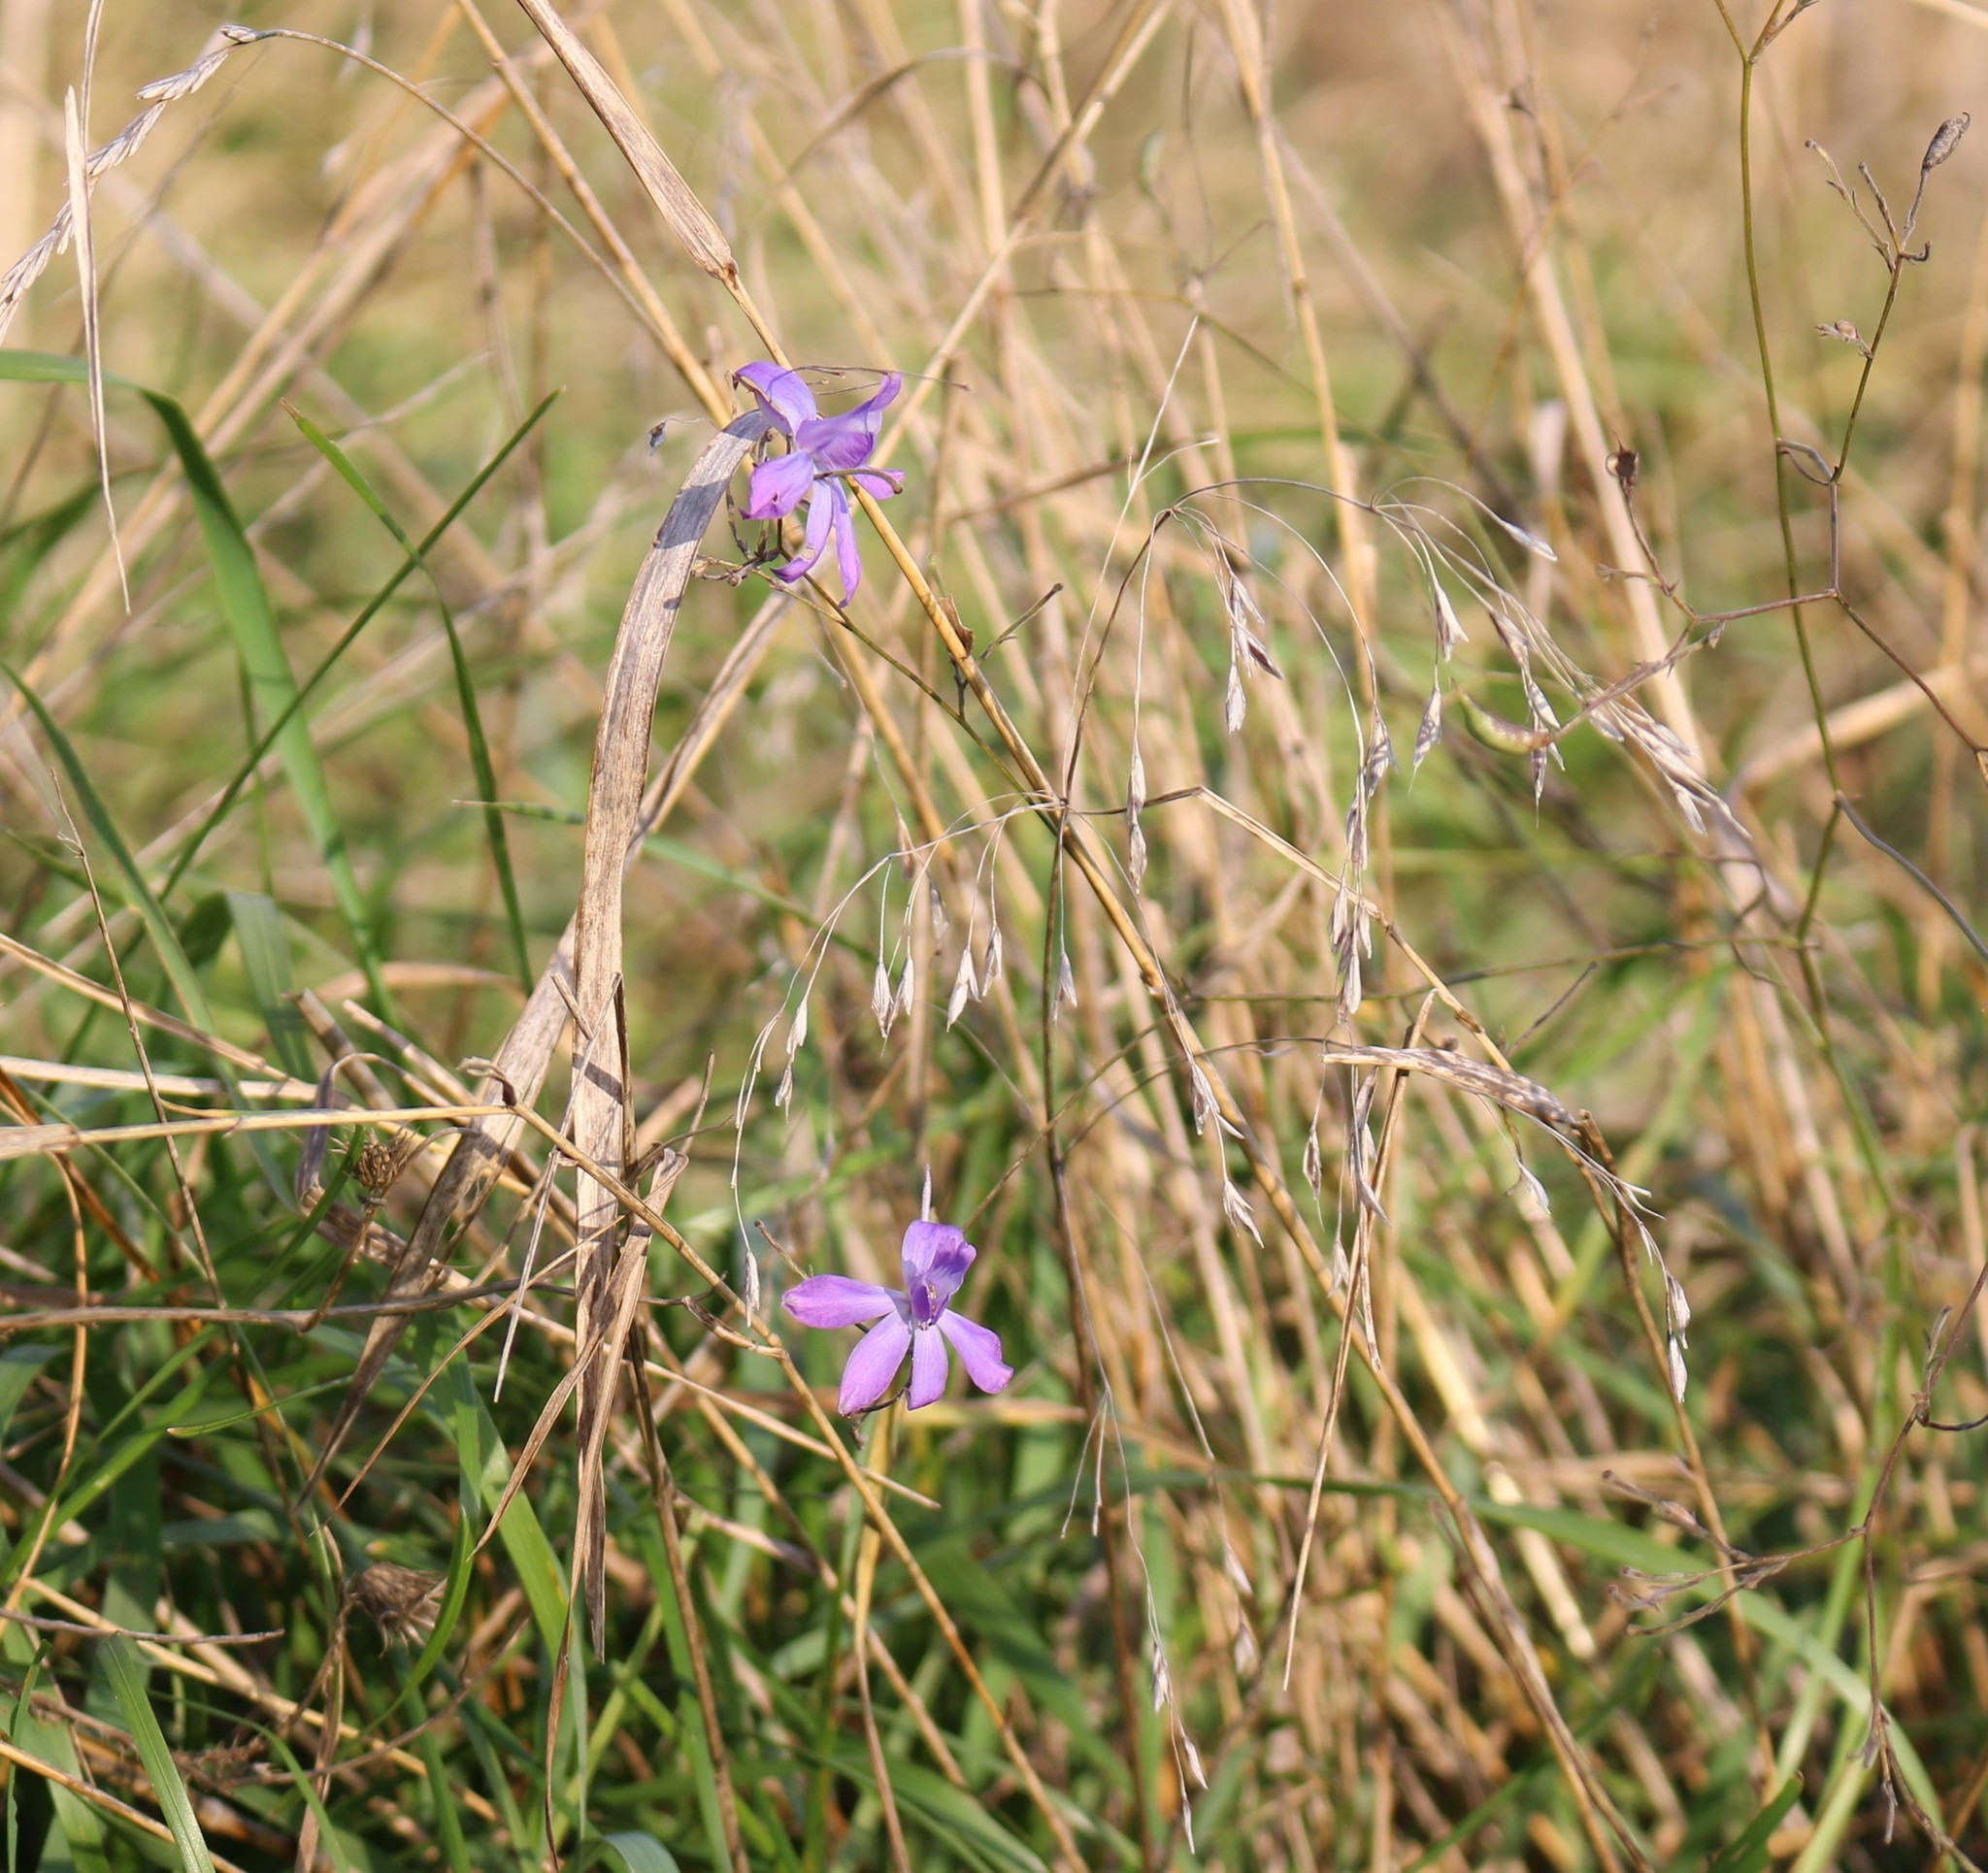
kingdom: Plantae
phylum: Tracheophyta
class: Magnoliopsida
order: Ranunculales
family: Ranunculaceae
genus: Delphinium
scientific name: Delphinium consolida
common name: Branching larkspur
